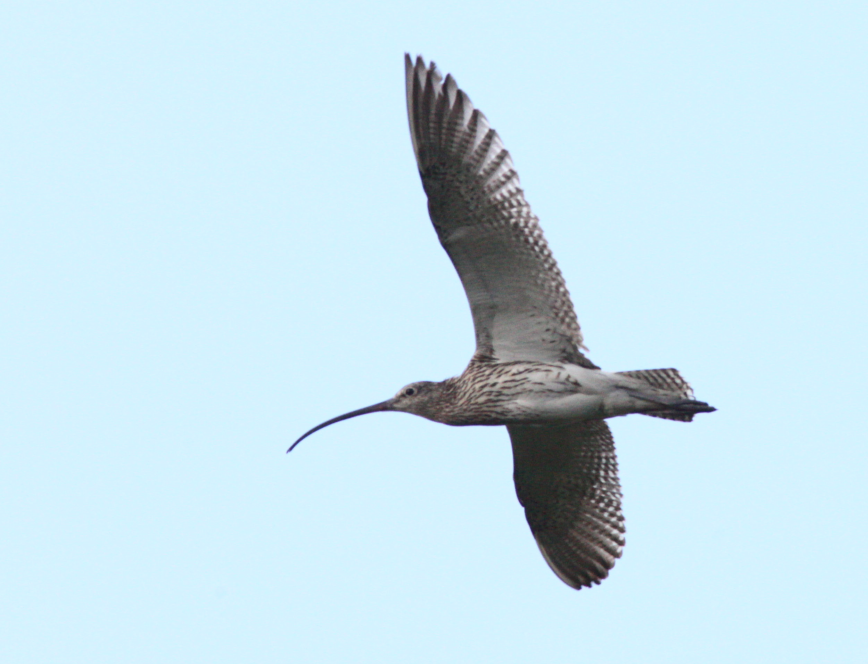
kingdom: Animalia
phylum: Chordata
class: Aves
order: Charadriiformes
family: Scolopacidae
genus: Numenius
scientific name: Numenius arquata
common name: Eurasian curlew
